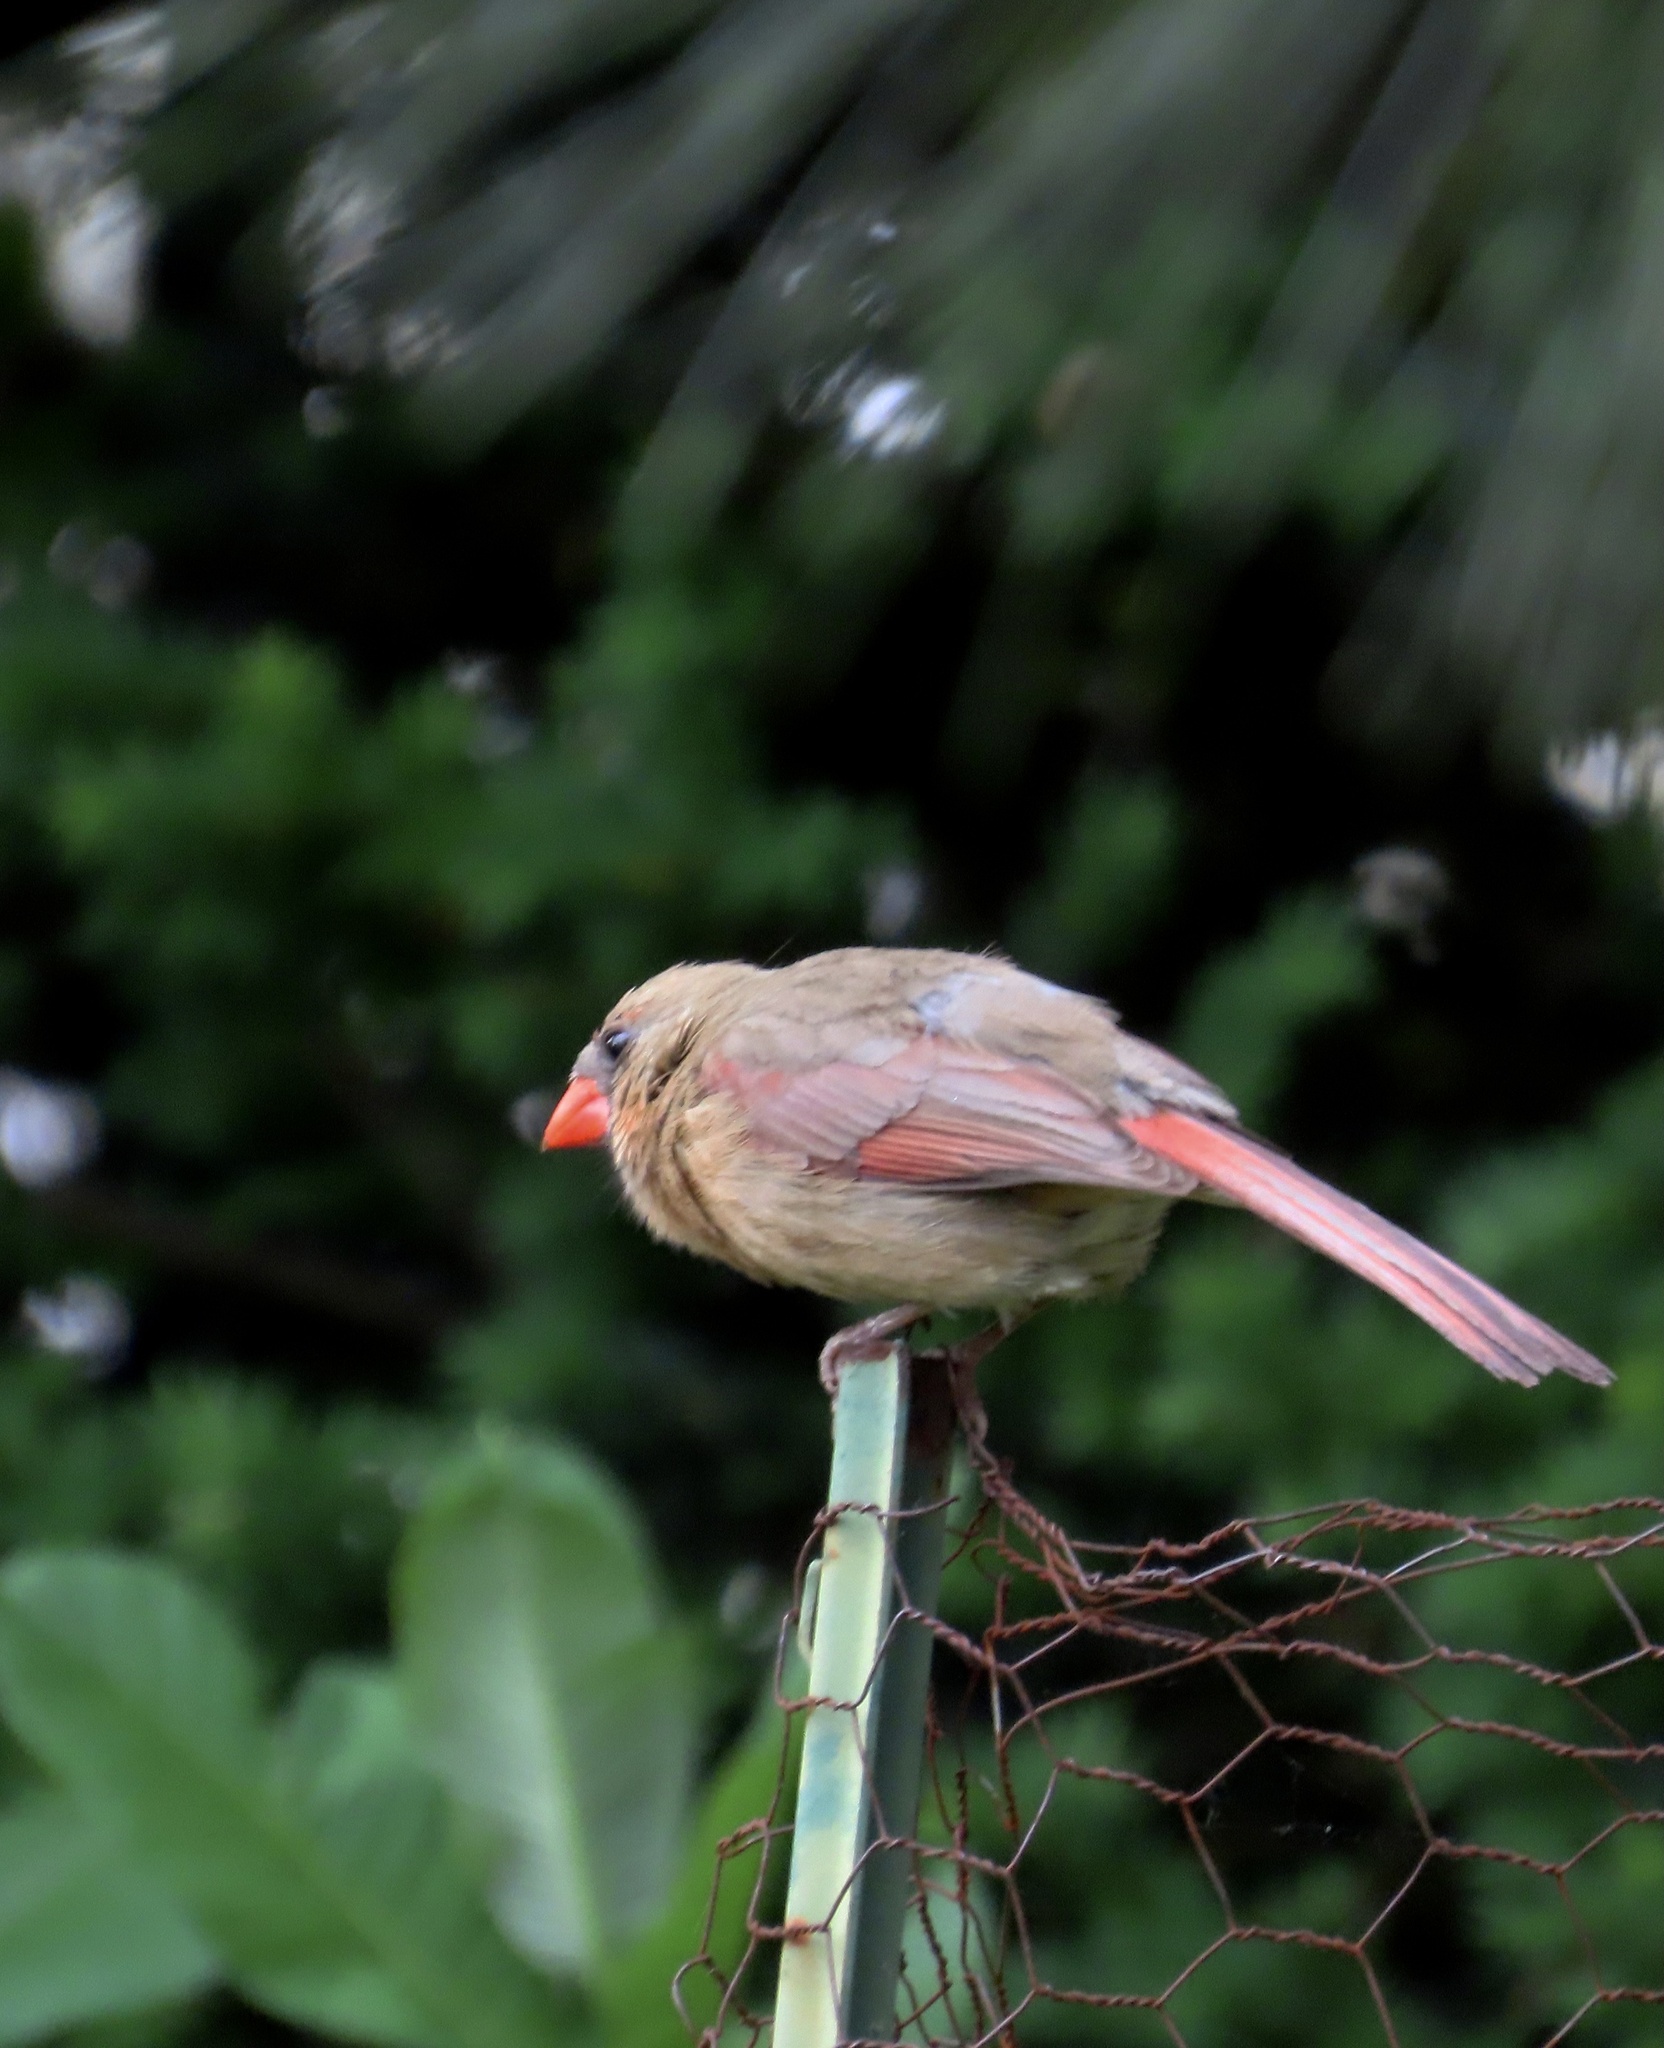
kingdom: Animalia
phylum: Chordata
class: Aves
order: Passeriformes
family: Cardinalidae
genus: Cardinalis
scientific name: Cardinalis cardinalis
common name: Northern cardinal
